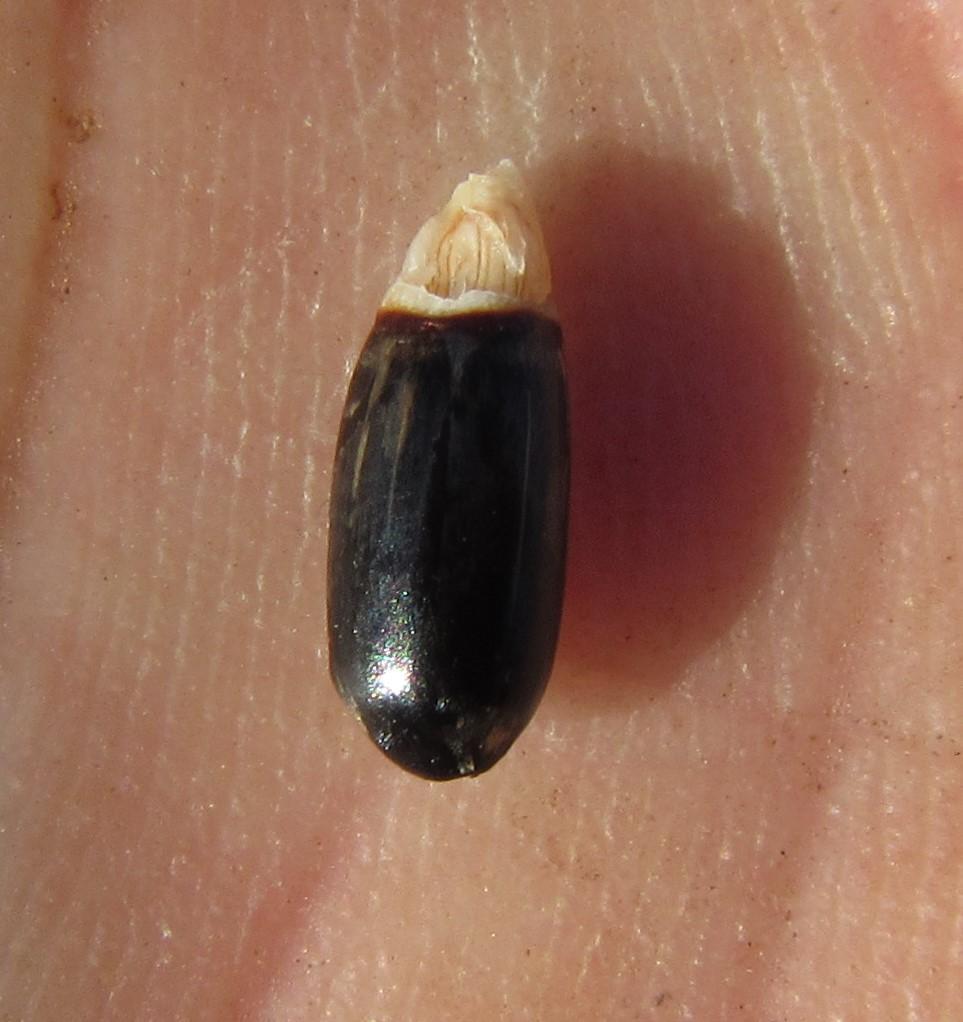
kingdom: Plantae
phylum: Tracheophyta
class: Liliopsida
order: Poales
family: Restionaceae
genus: Cannomois
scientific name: Cannomois congesta
